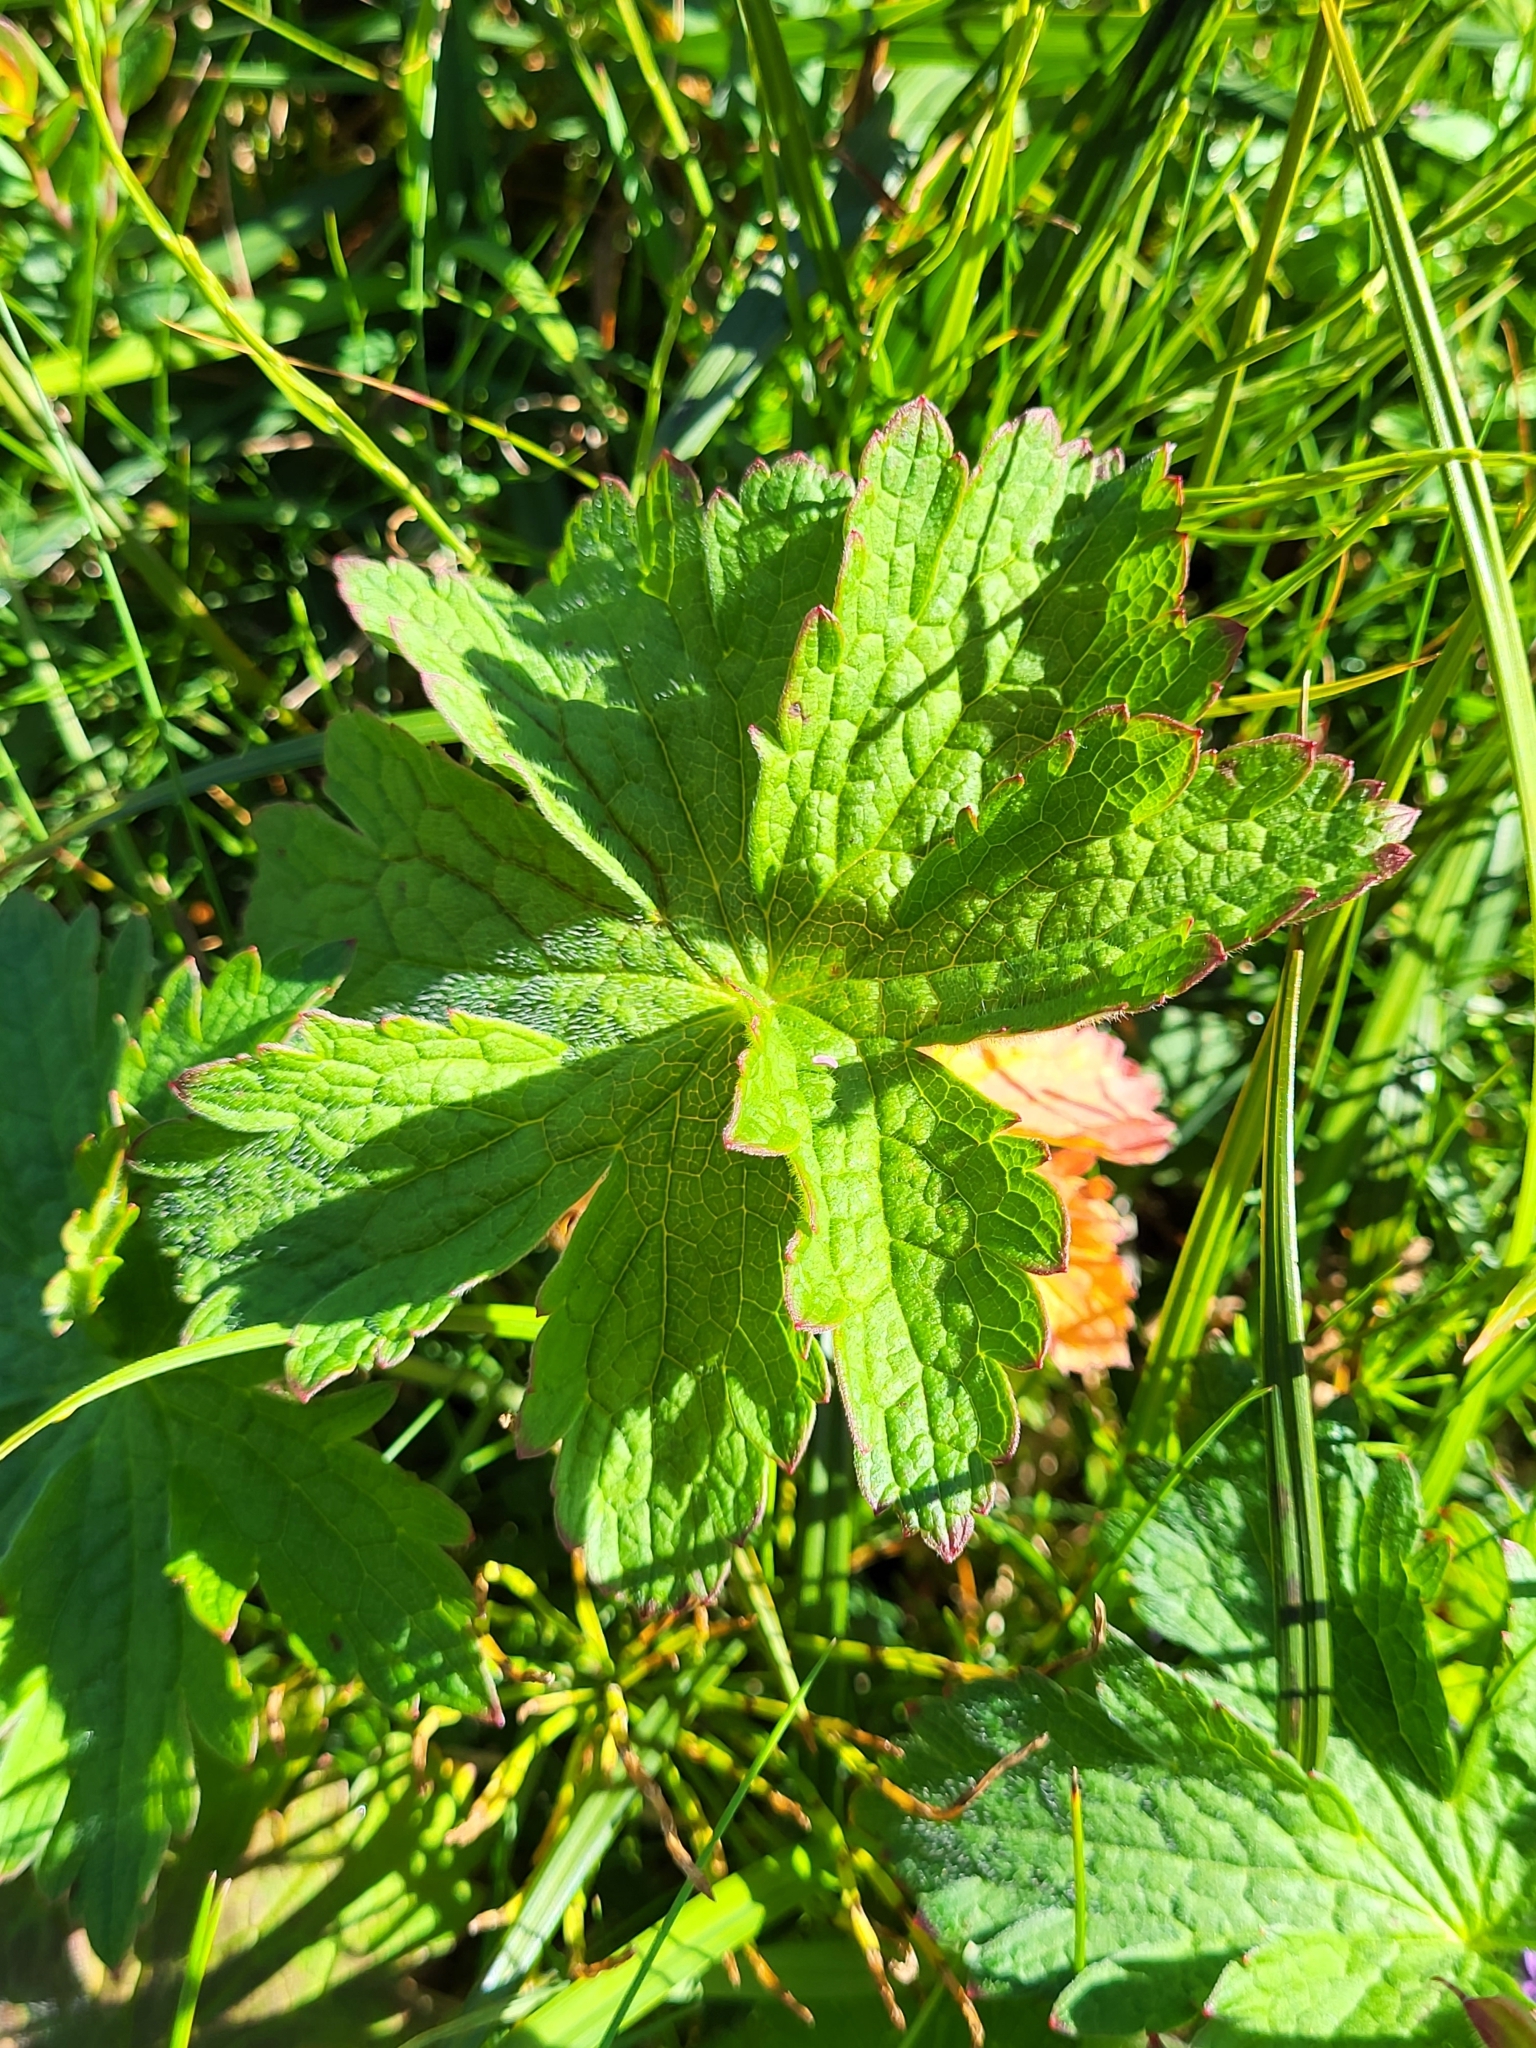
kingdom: Plantae
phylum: Tracheophyta
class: Magnoliopsida
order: Geraniales
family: Geraniaceae
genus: Geranium
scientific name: Geranium sylvaticum
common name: Wood crane's-bill
